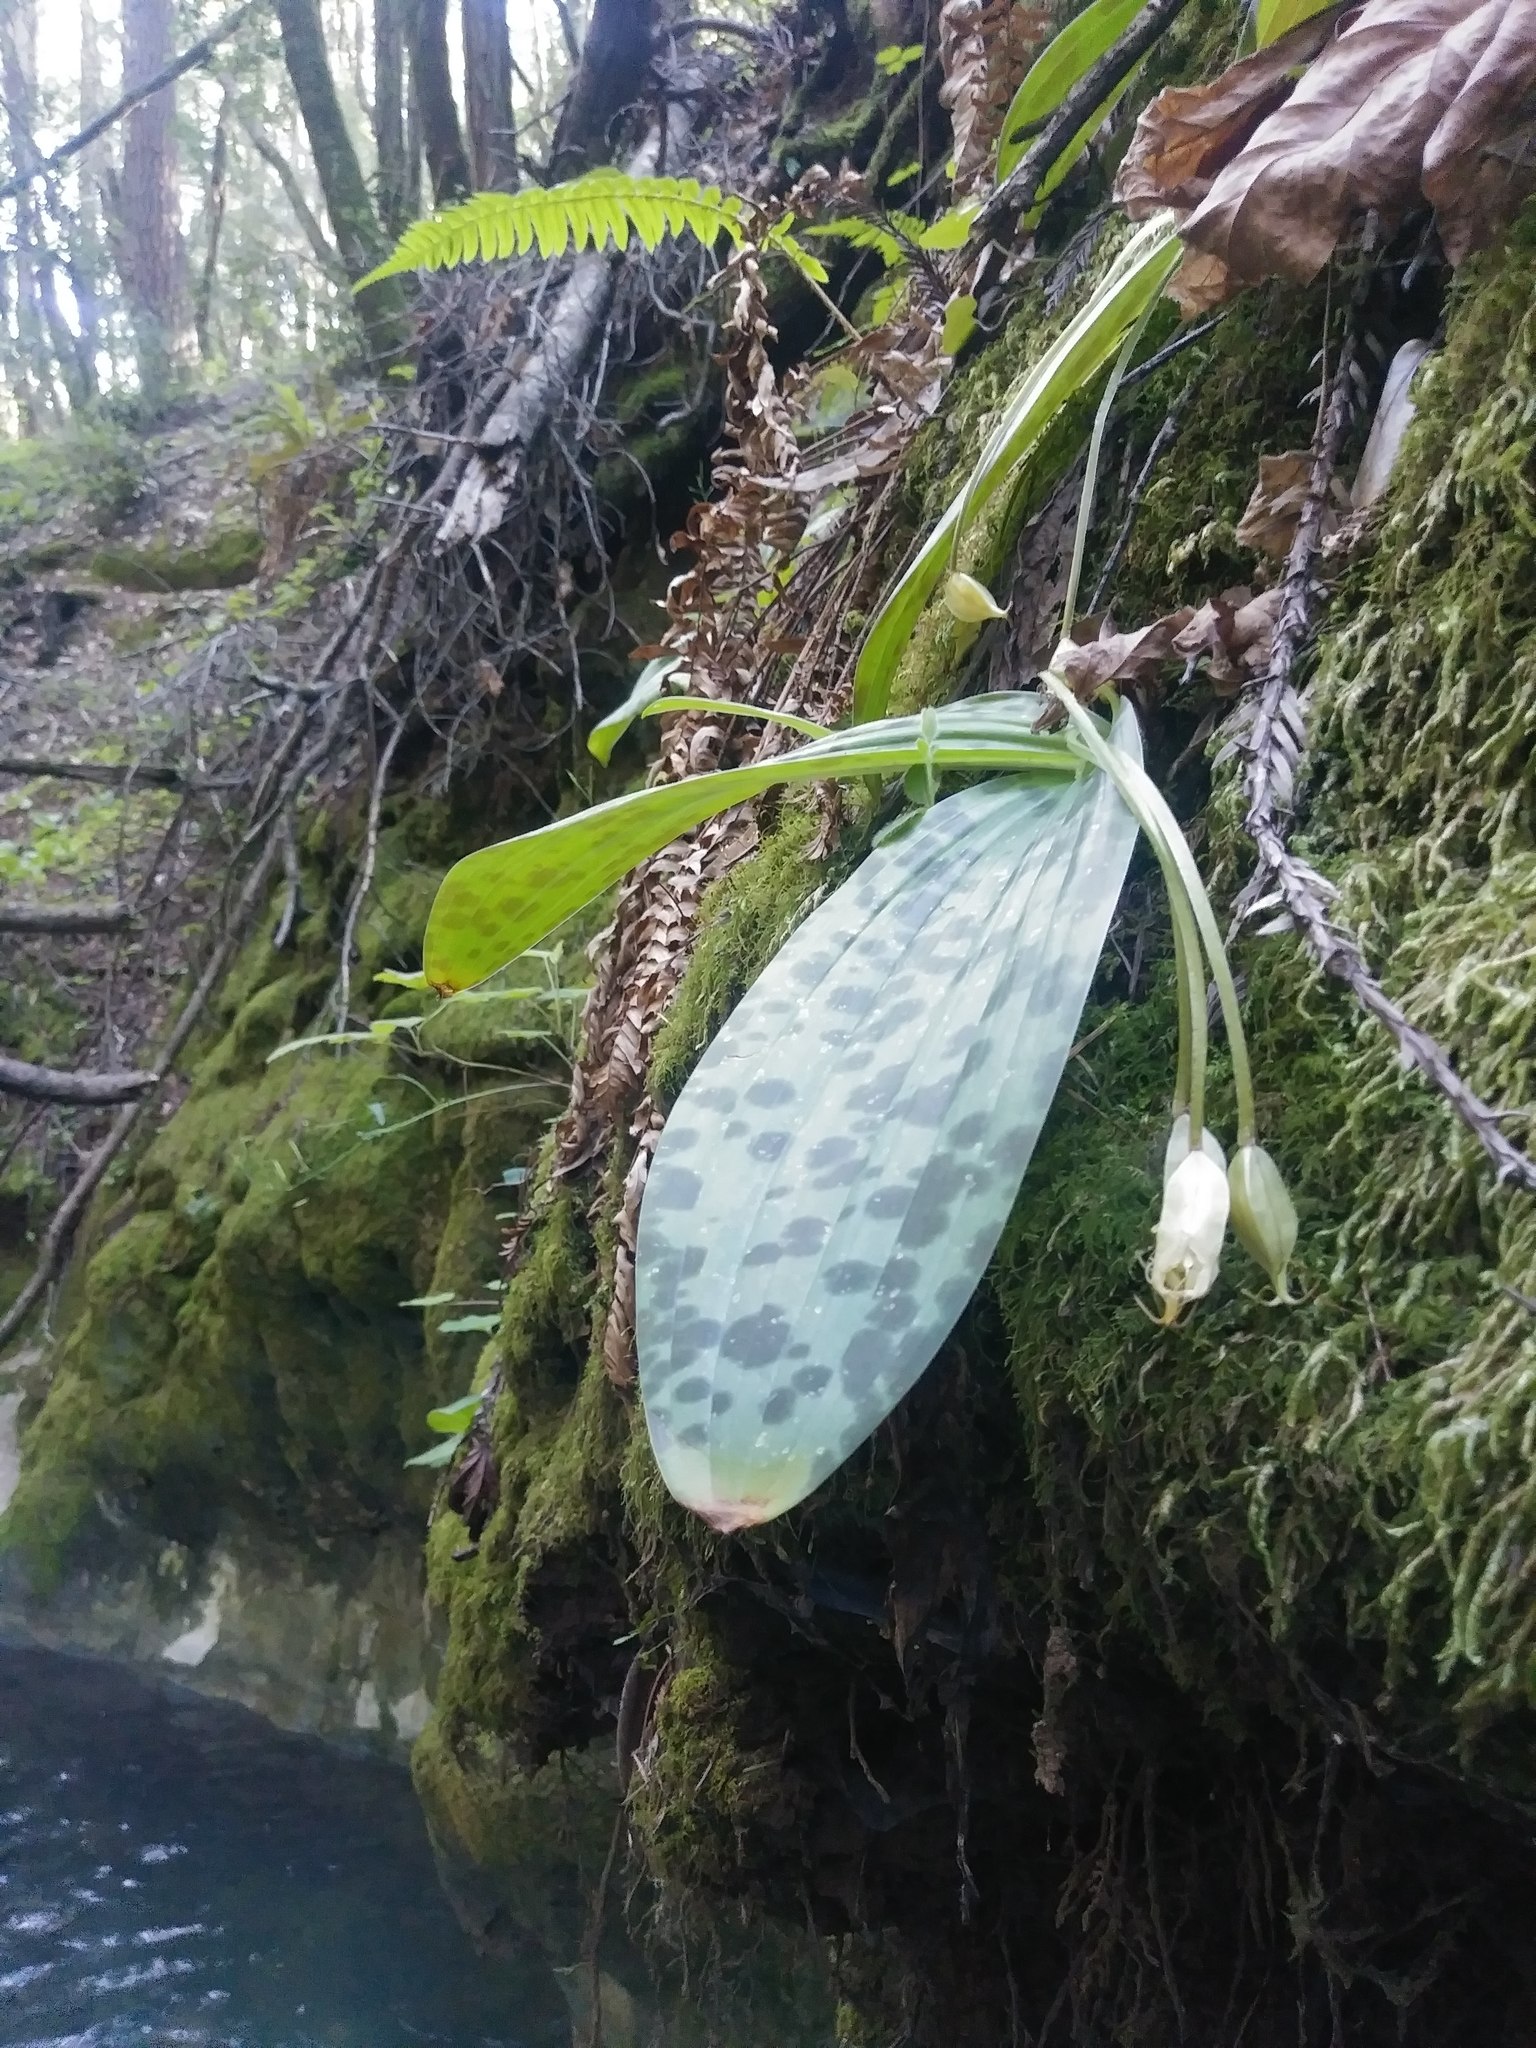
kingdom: Plantae
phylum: Tracheophyta
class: Liliopsida
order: Liliales
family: Liliaceae
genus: Scoliopus
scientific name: Scoliopus bigelovii
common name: Foetid adder's-tongue
